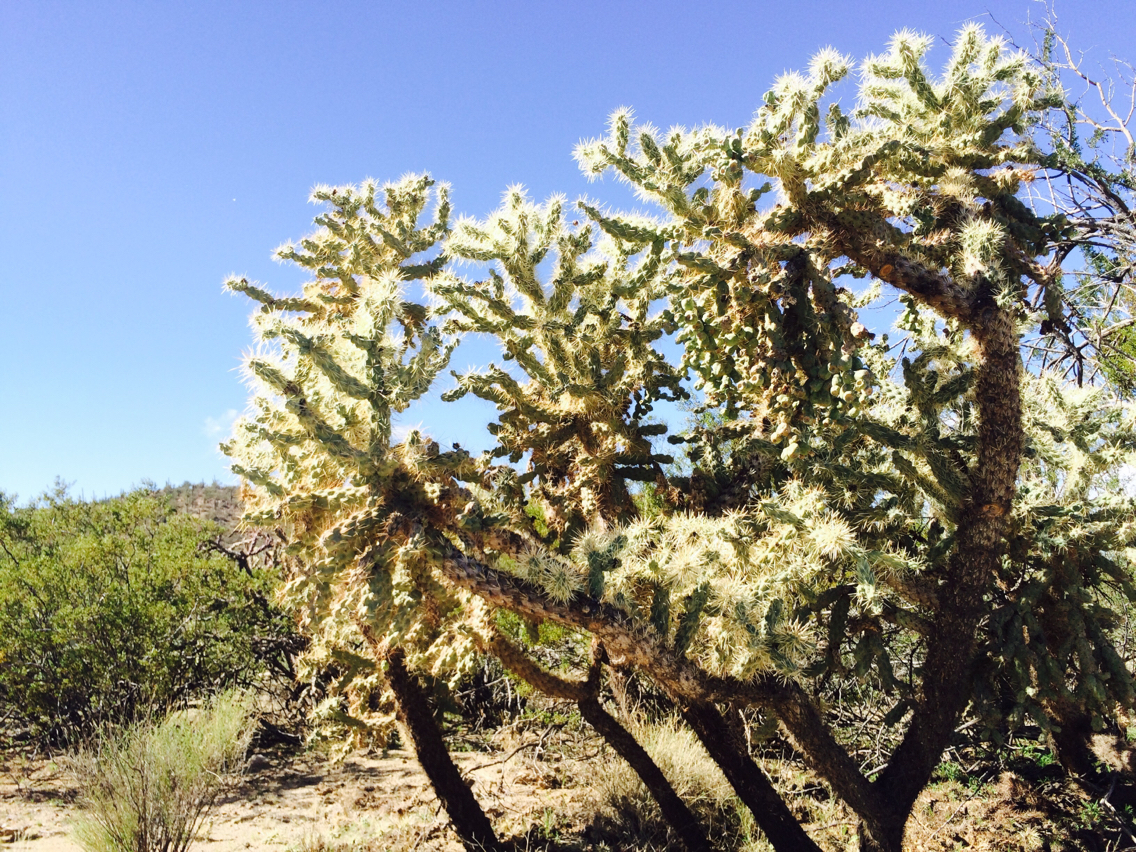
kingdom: Plantae
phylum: Tracheophyta
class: Magnoliopsida
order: Caryophyllales
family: Cactaceae
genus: Cylindropuntia
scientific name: Cylindropuntia fulgida
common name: Jumping cholla
